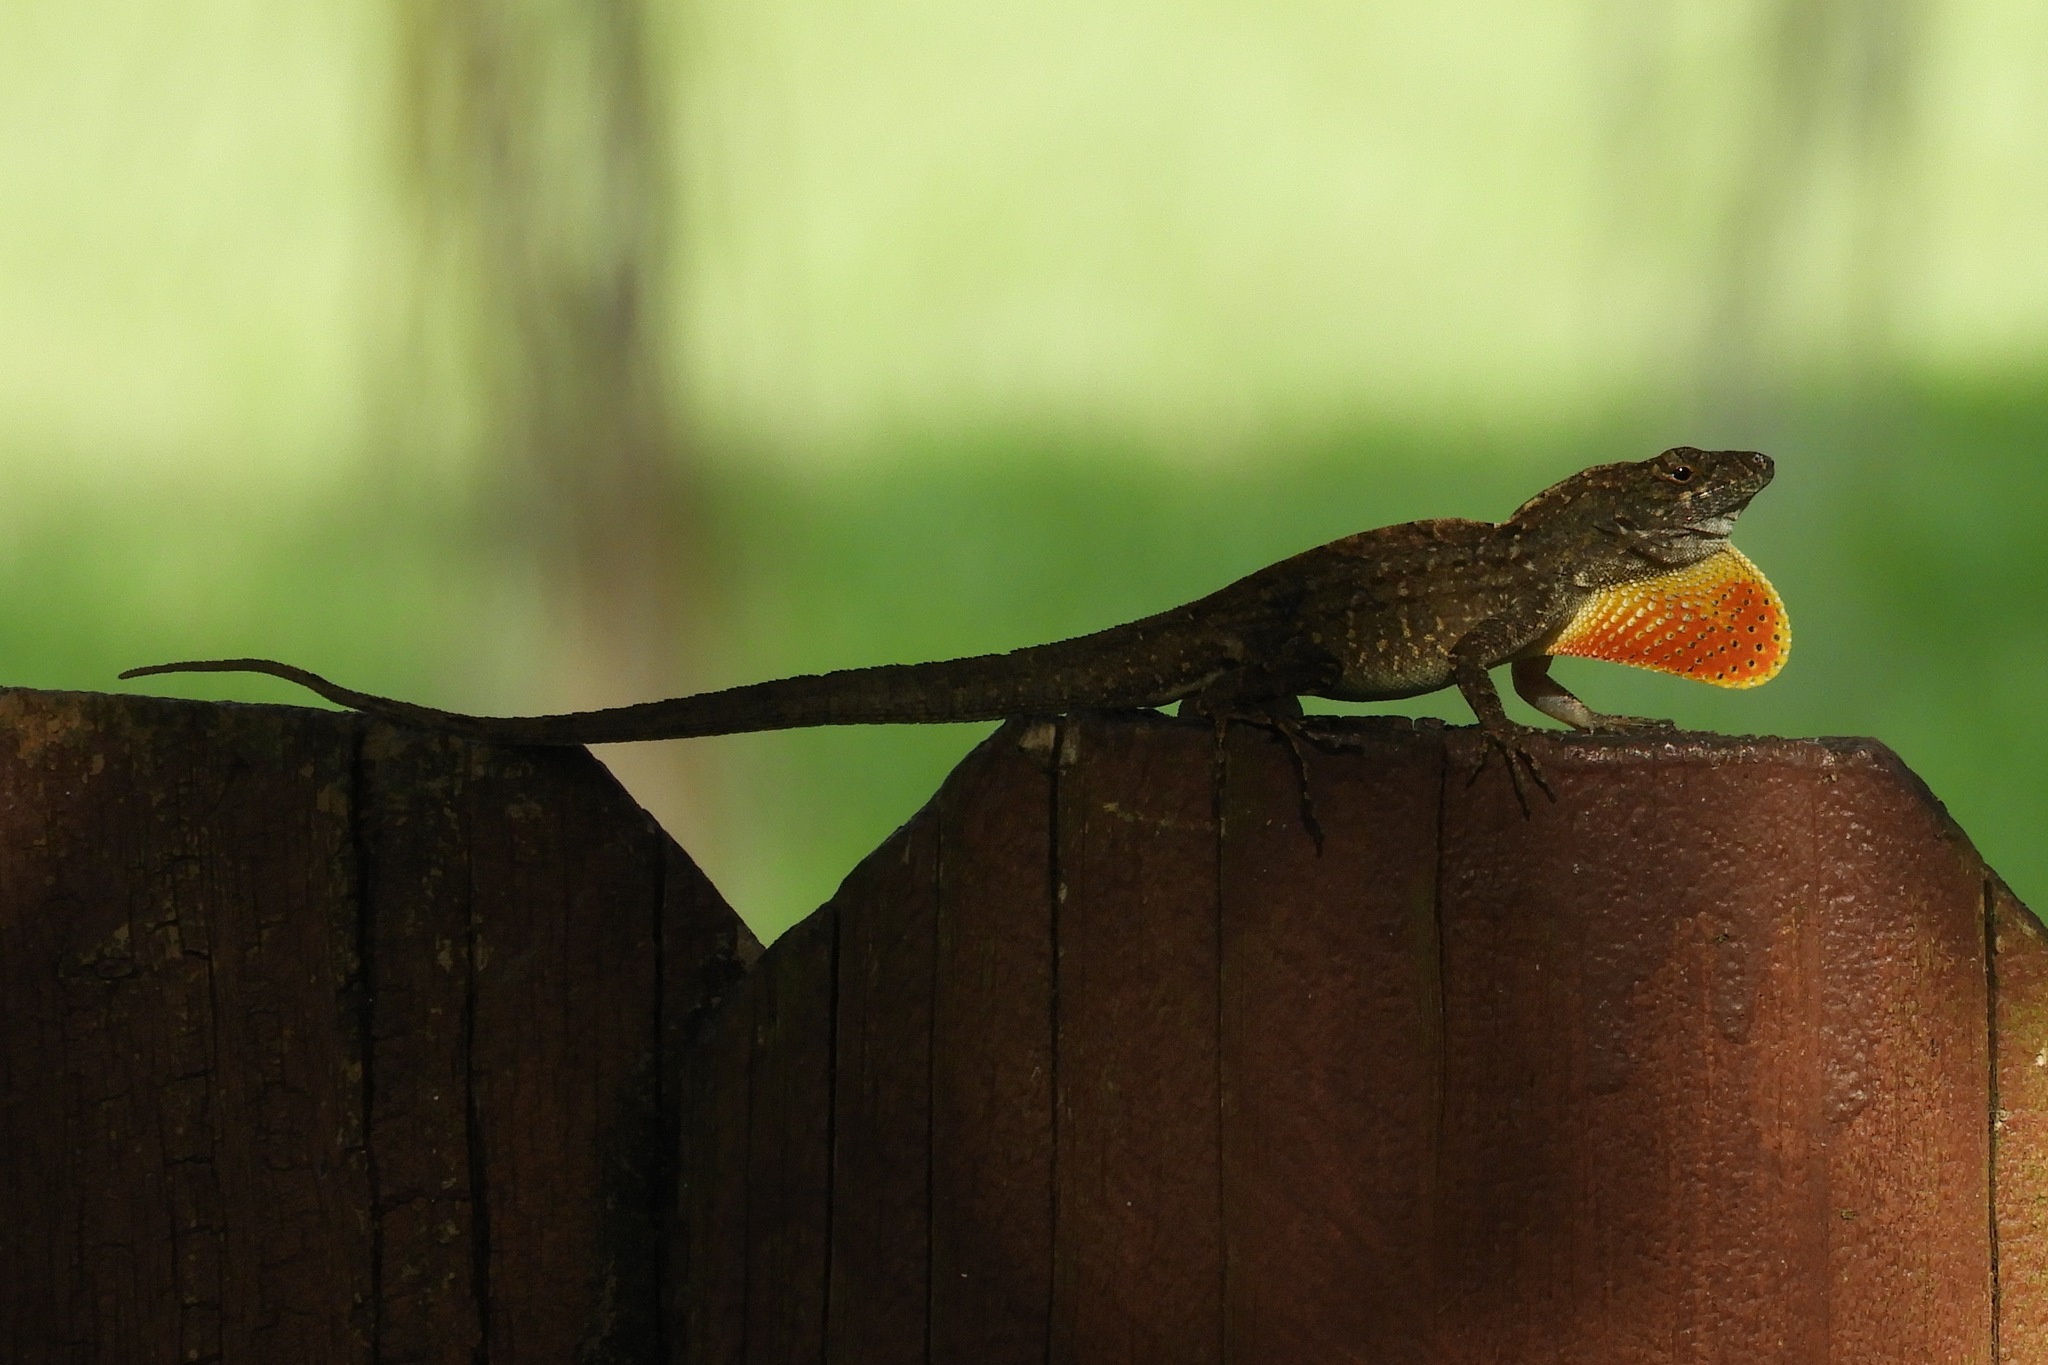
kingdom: Animalia
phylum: Chordata
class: Squamata
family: Dactyloidae
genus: Anolis
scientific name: Anolis sagrei
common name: Brown anole
